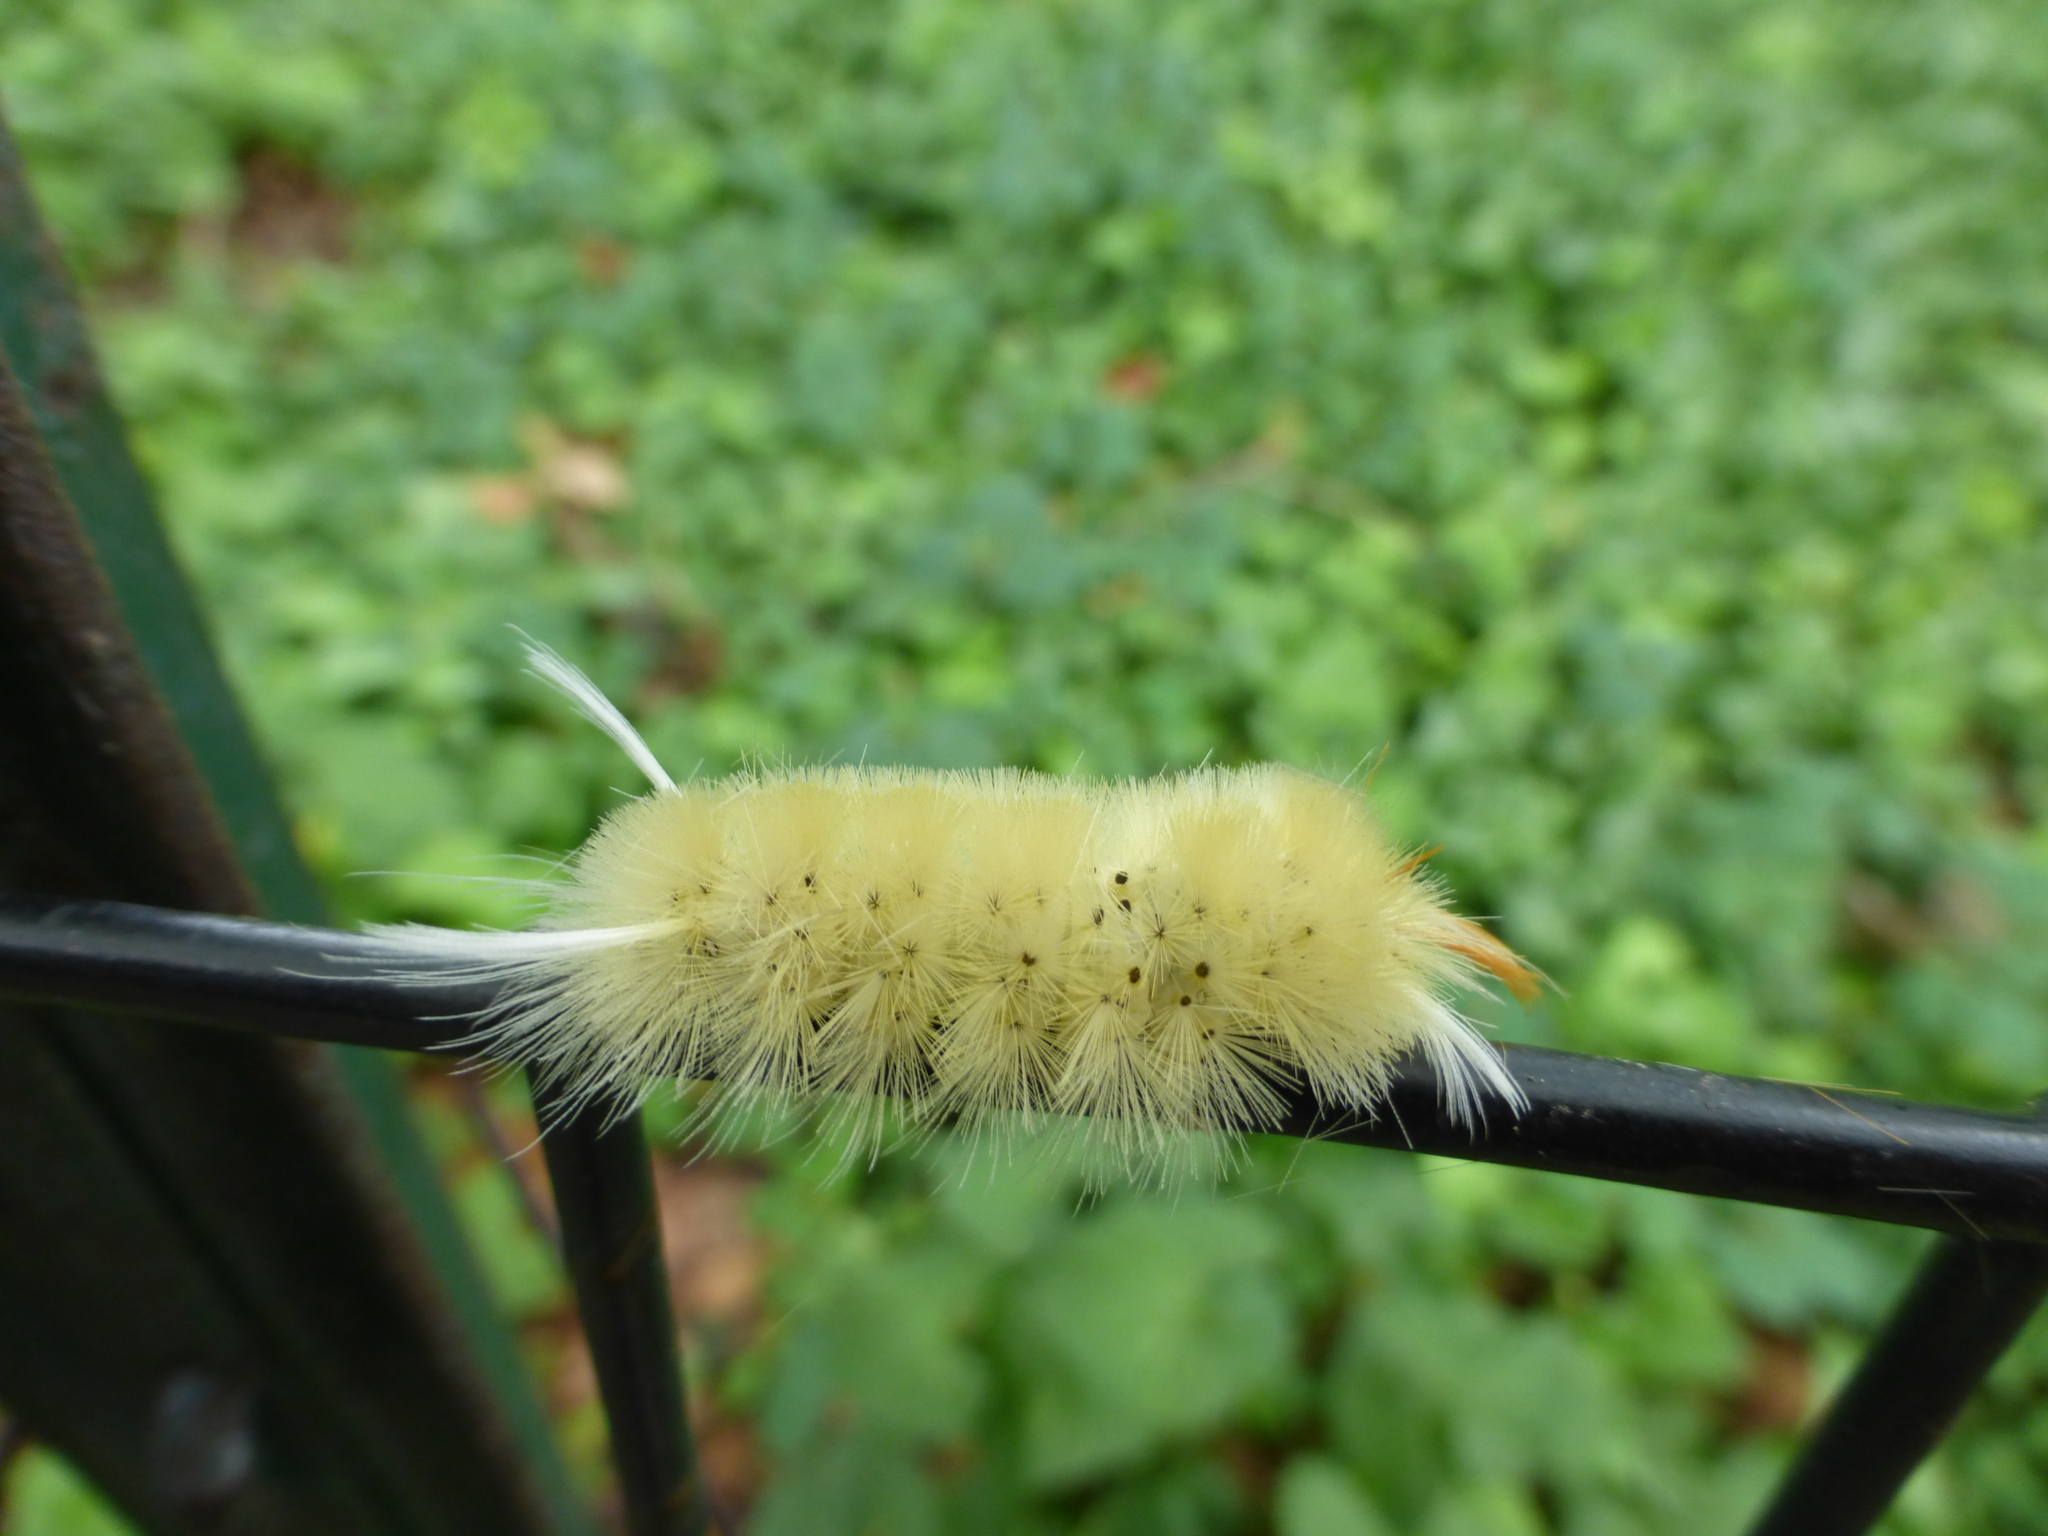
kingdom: Animalia
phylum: Arthropoda
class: Insecta
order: Lepidoptera
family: Erebidae
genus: Halysidota
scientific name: Halysidota harrisii
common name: Sycamore tussock moth
